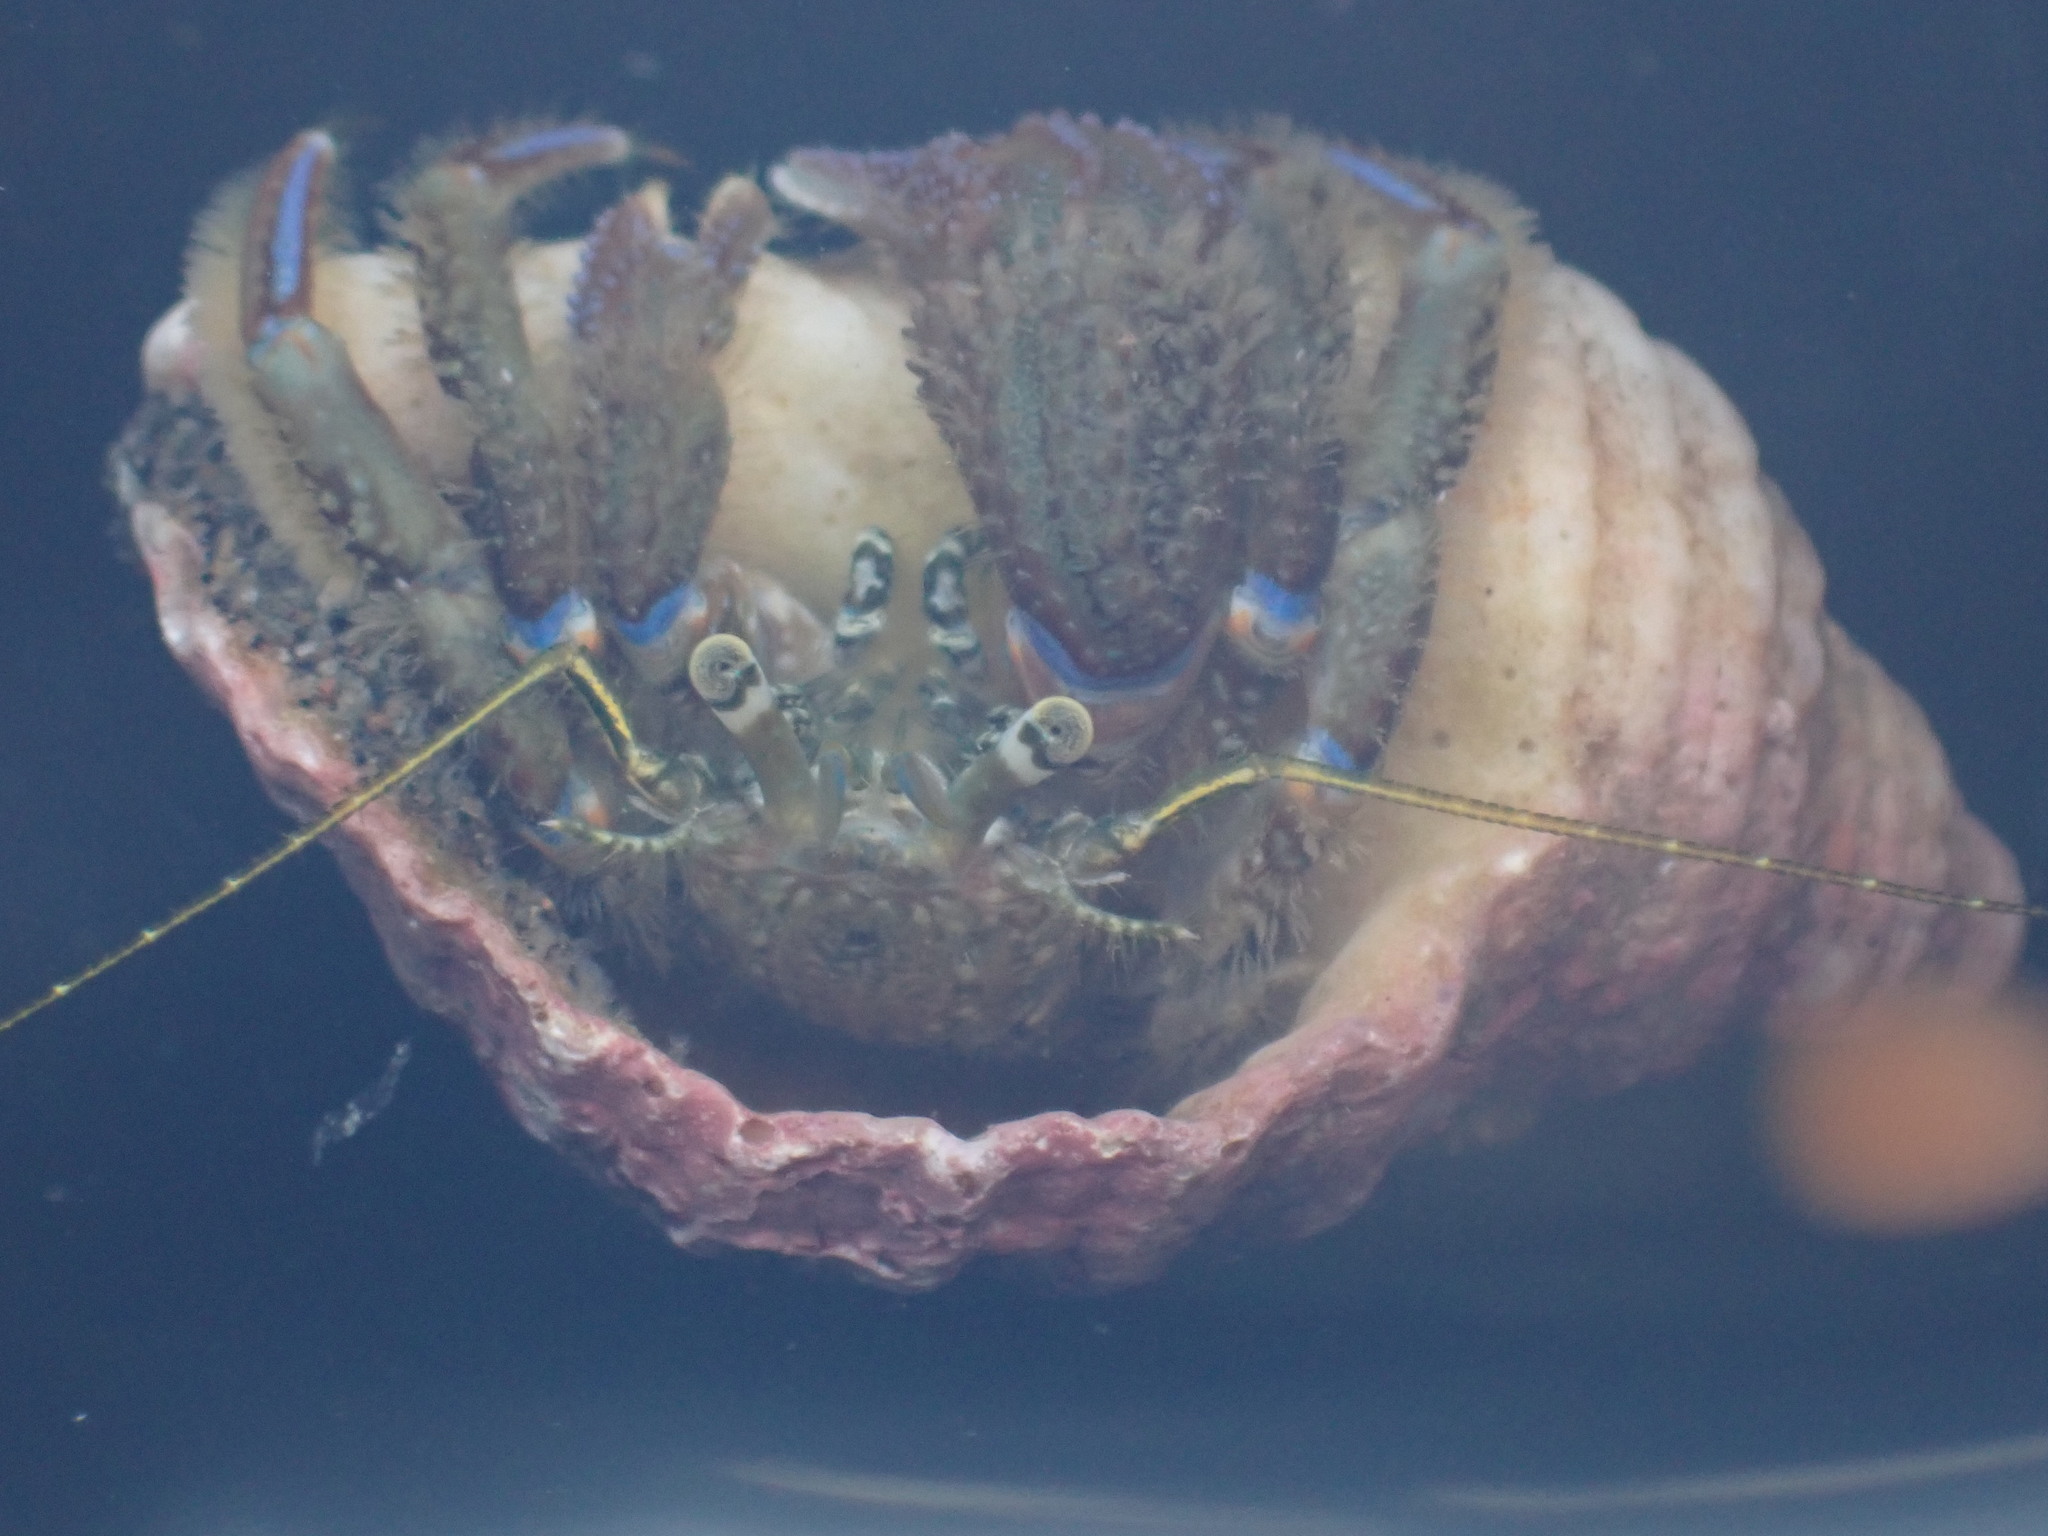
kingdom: Animalia
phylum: Arthropoda
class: Malacostraca
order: Decapoda
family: Paguridae
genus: Pagurus
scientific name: Pagurus novizealandiae
